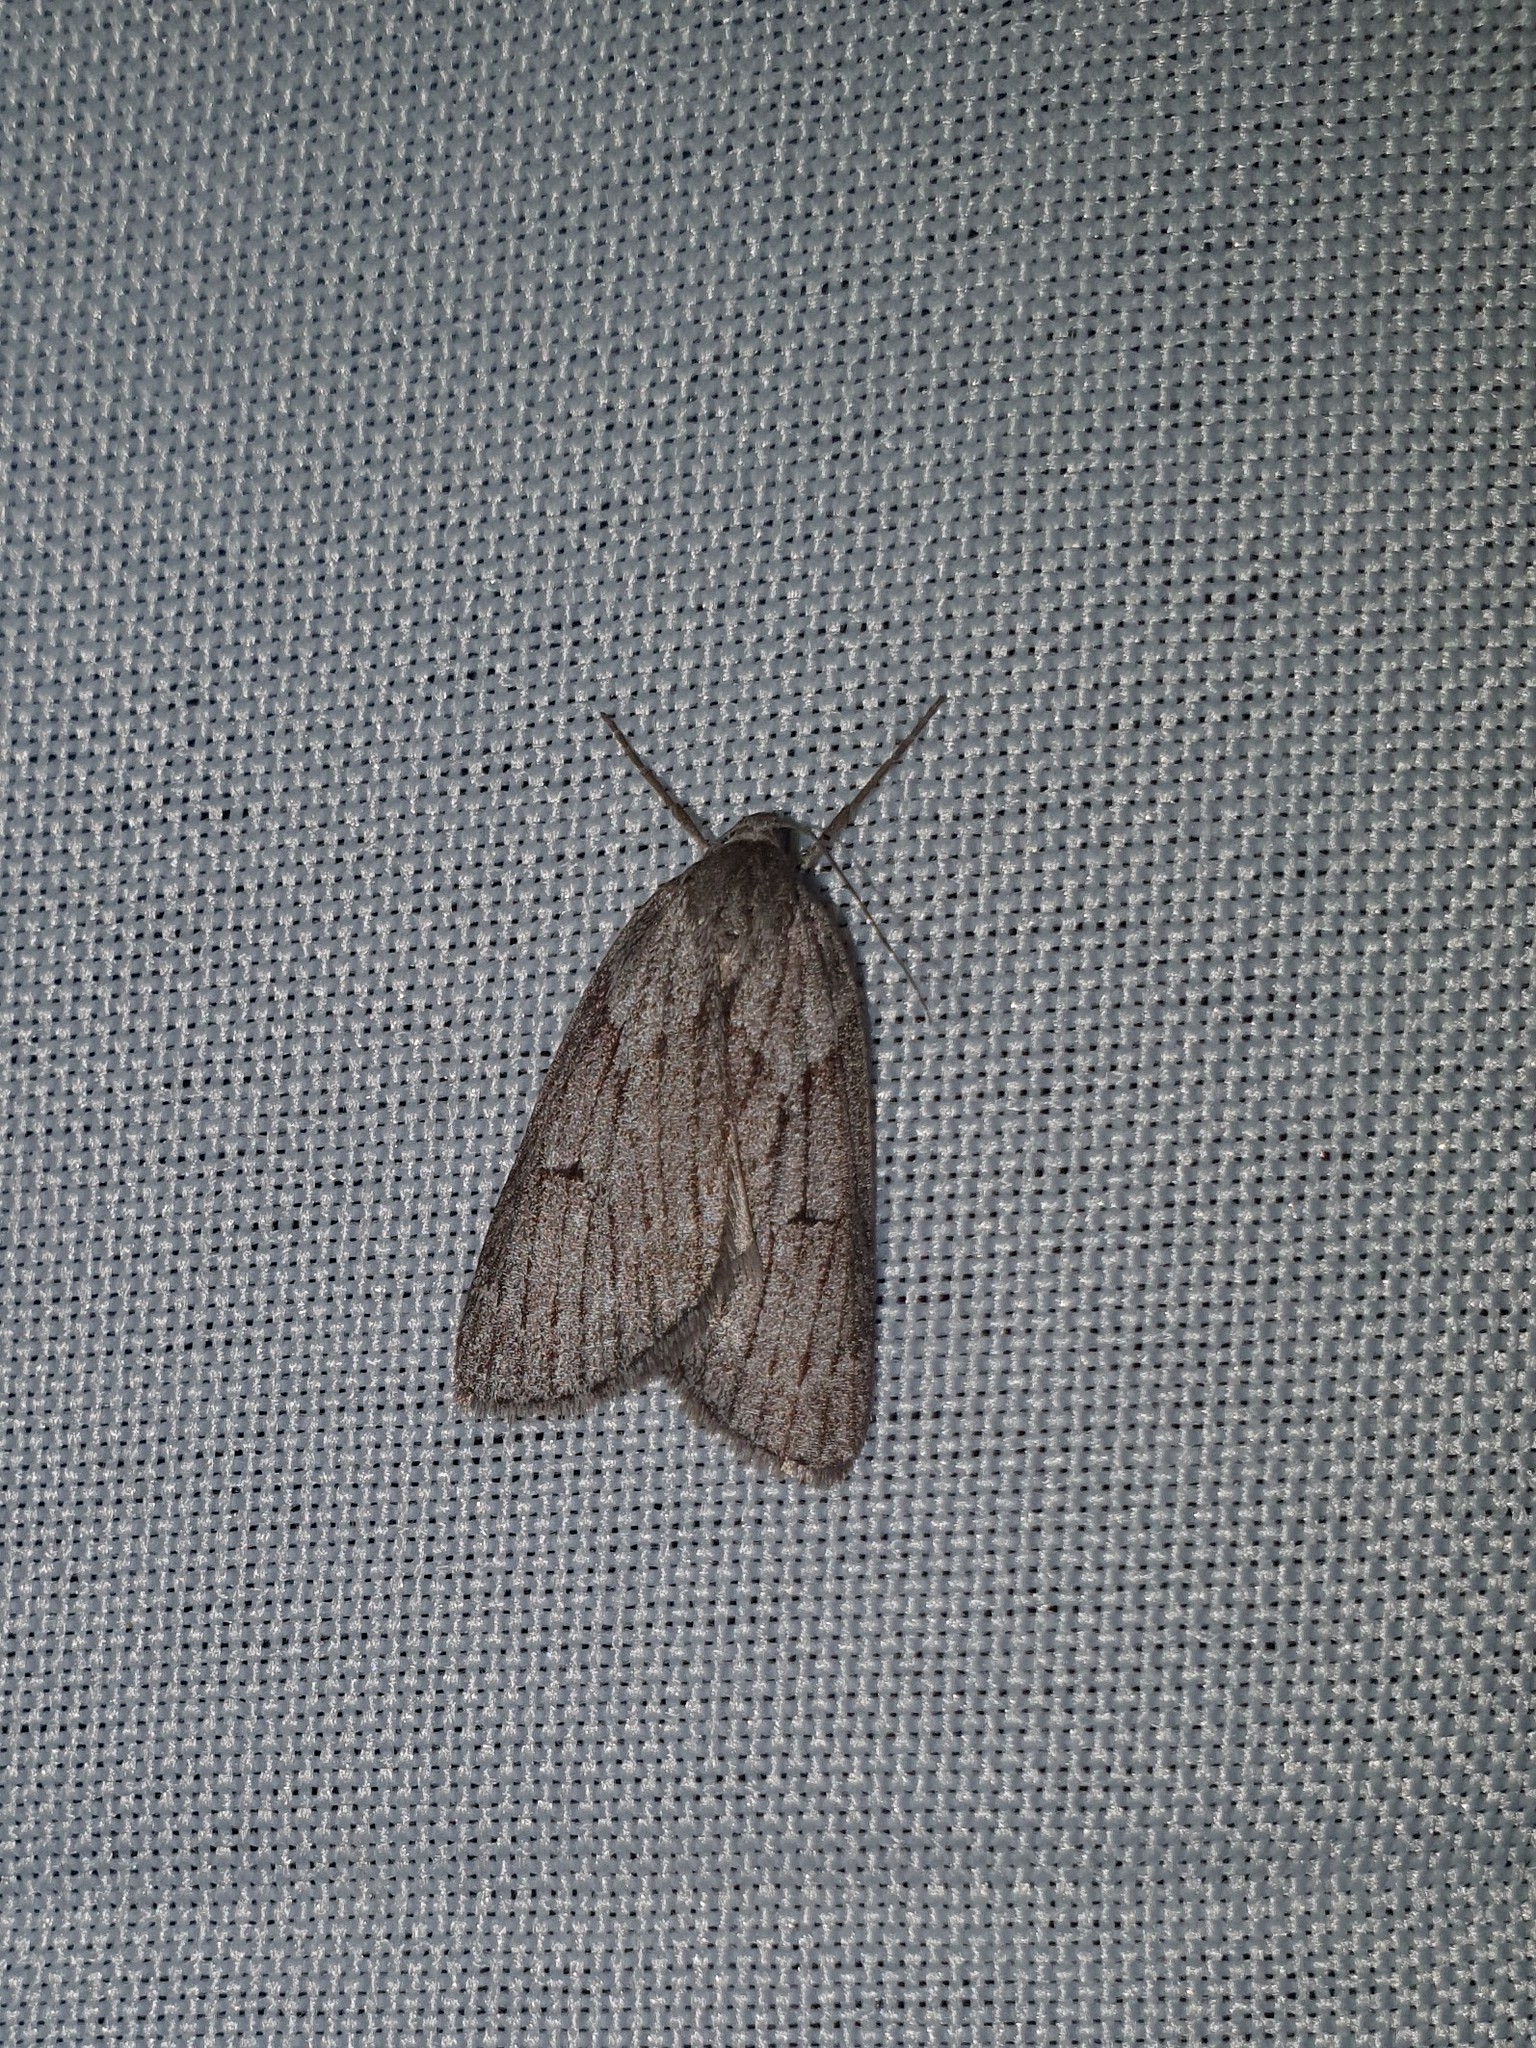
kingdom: Animalia
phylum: Arthropoda
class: Insecta
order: Lepidoptera
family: Geometridae
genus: Pachycnemia
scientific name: Pachycnemia hippocastanaria
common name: Horse chestnut
